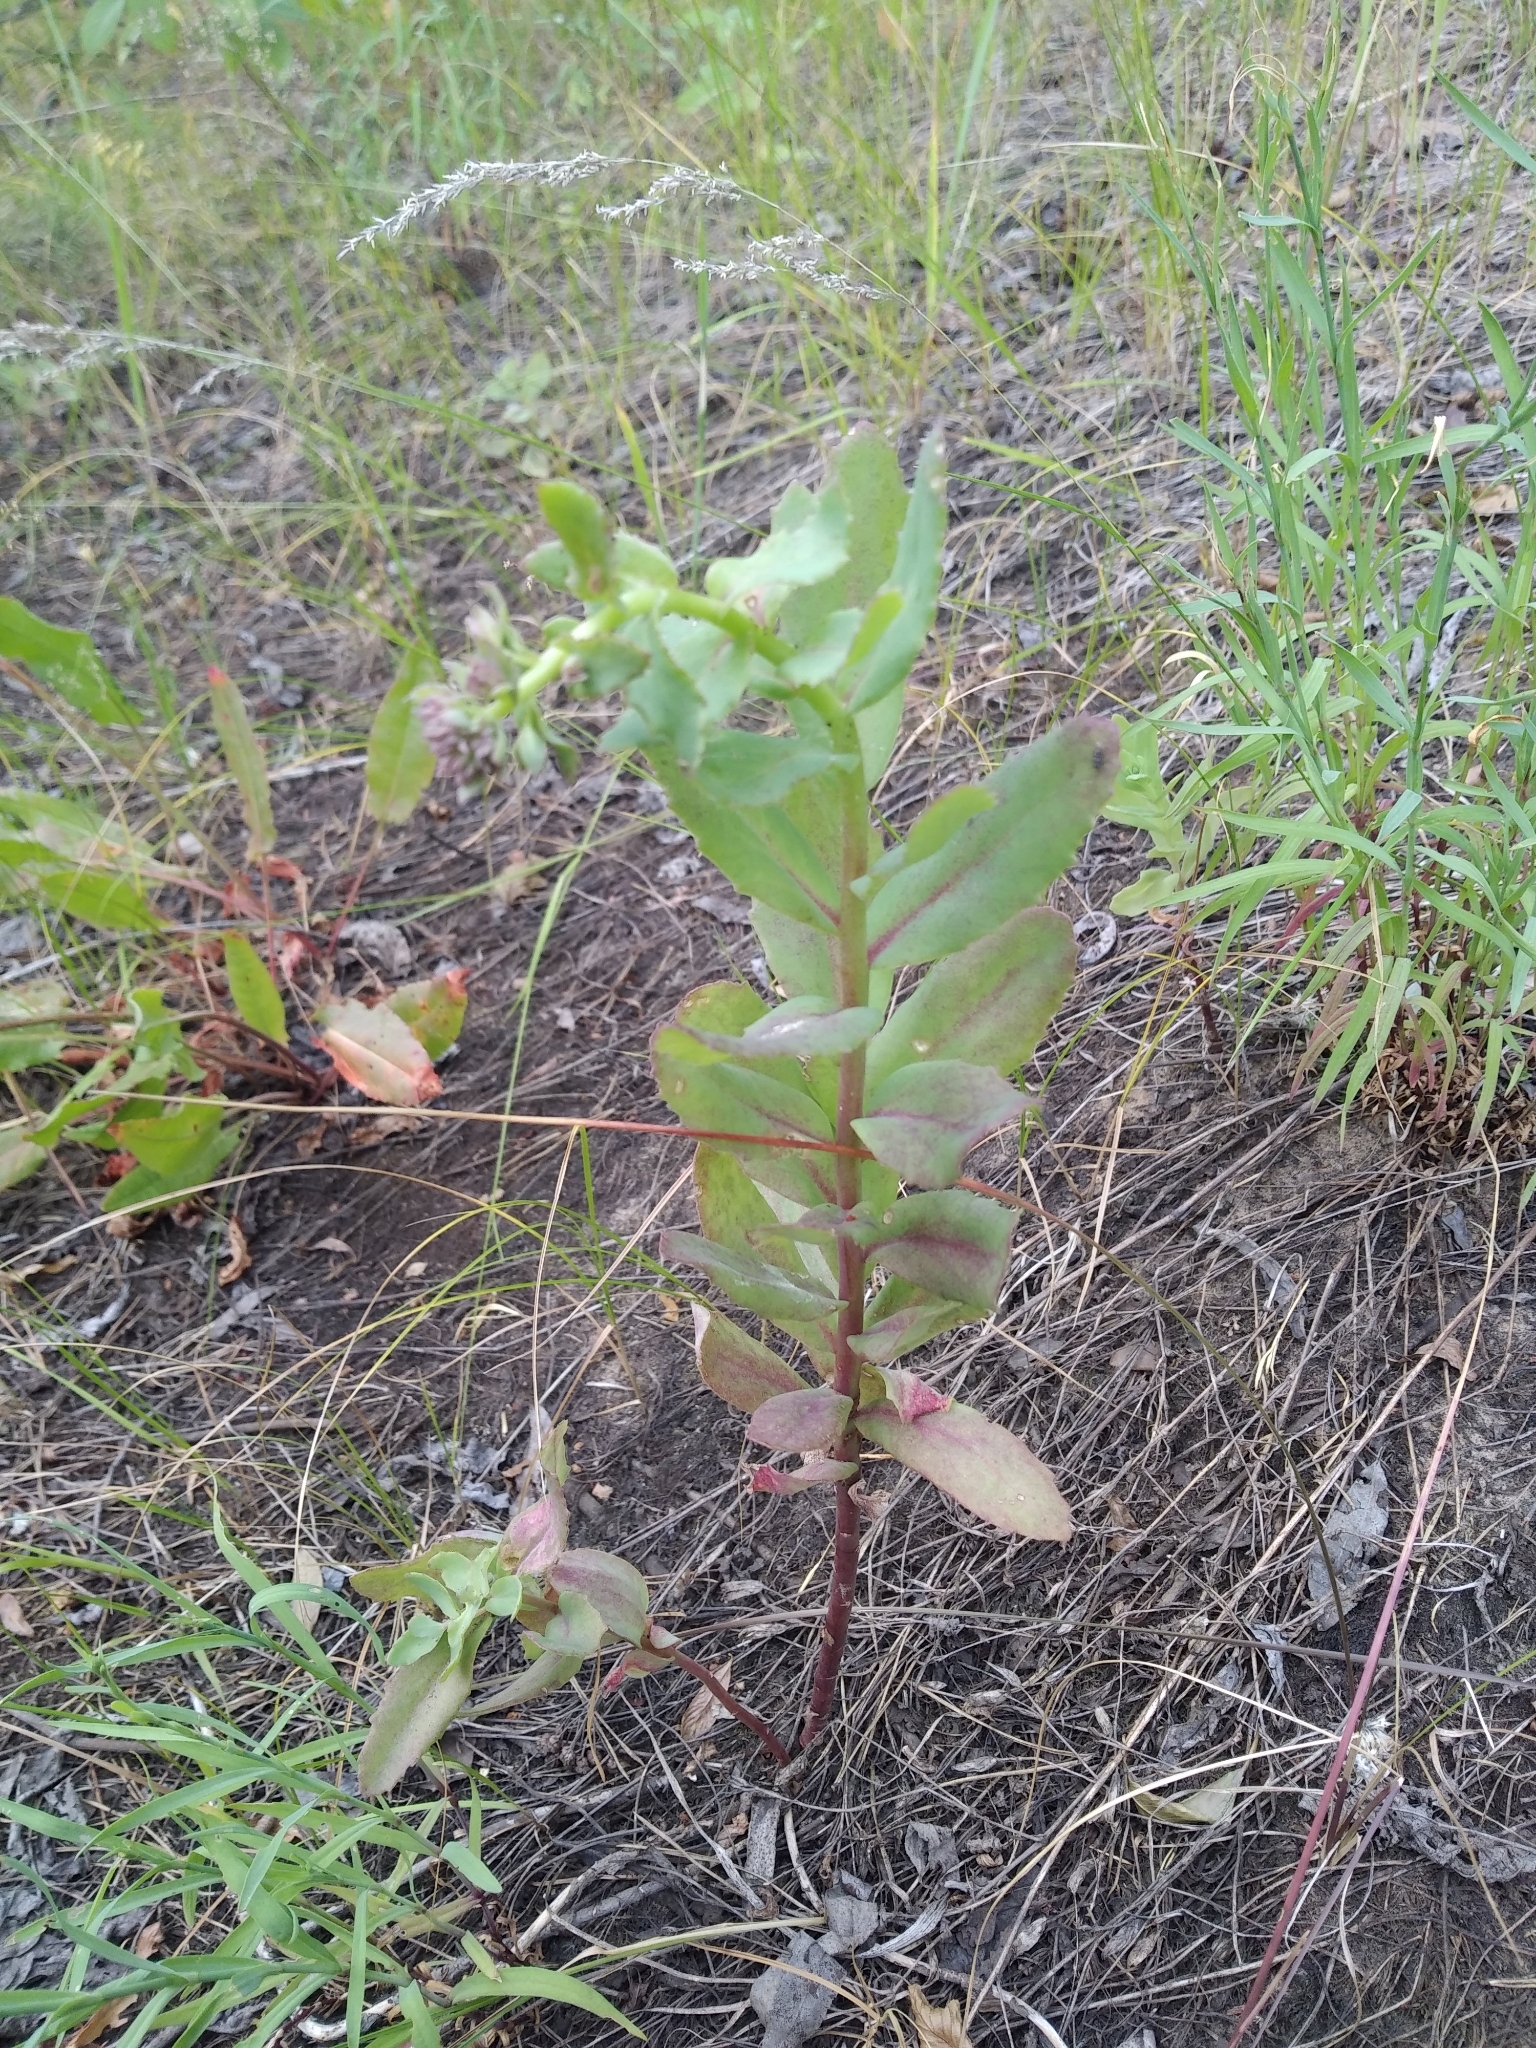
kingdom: Plantae
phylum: Tracheophyta
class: Magnoliopsida
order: Saxifragales
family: Crassulaceae
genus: Hylotelephium
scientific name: Hylotelephium telephium
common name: Live-forever
